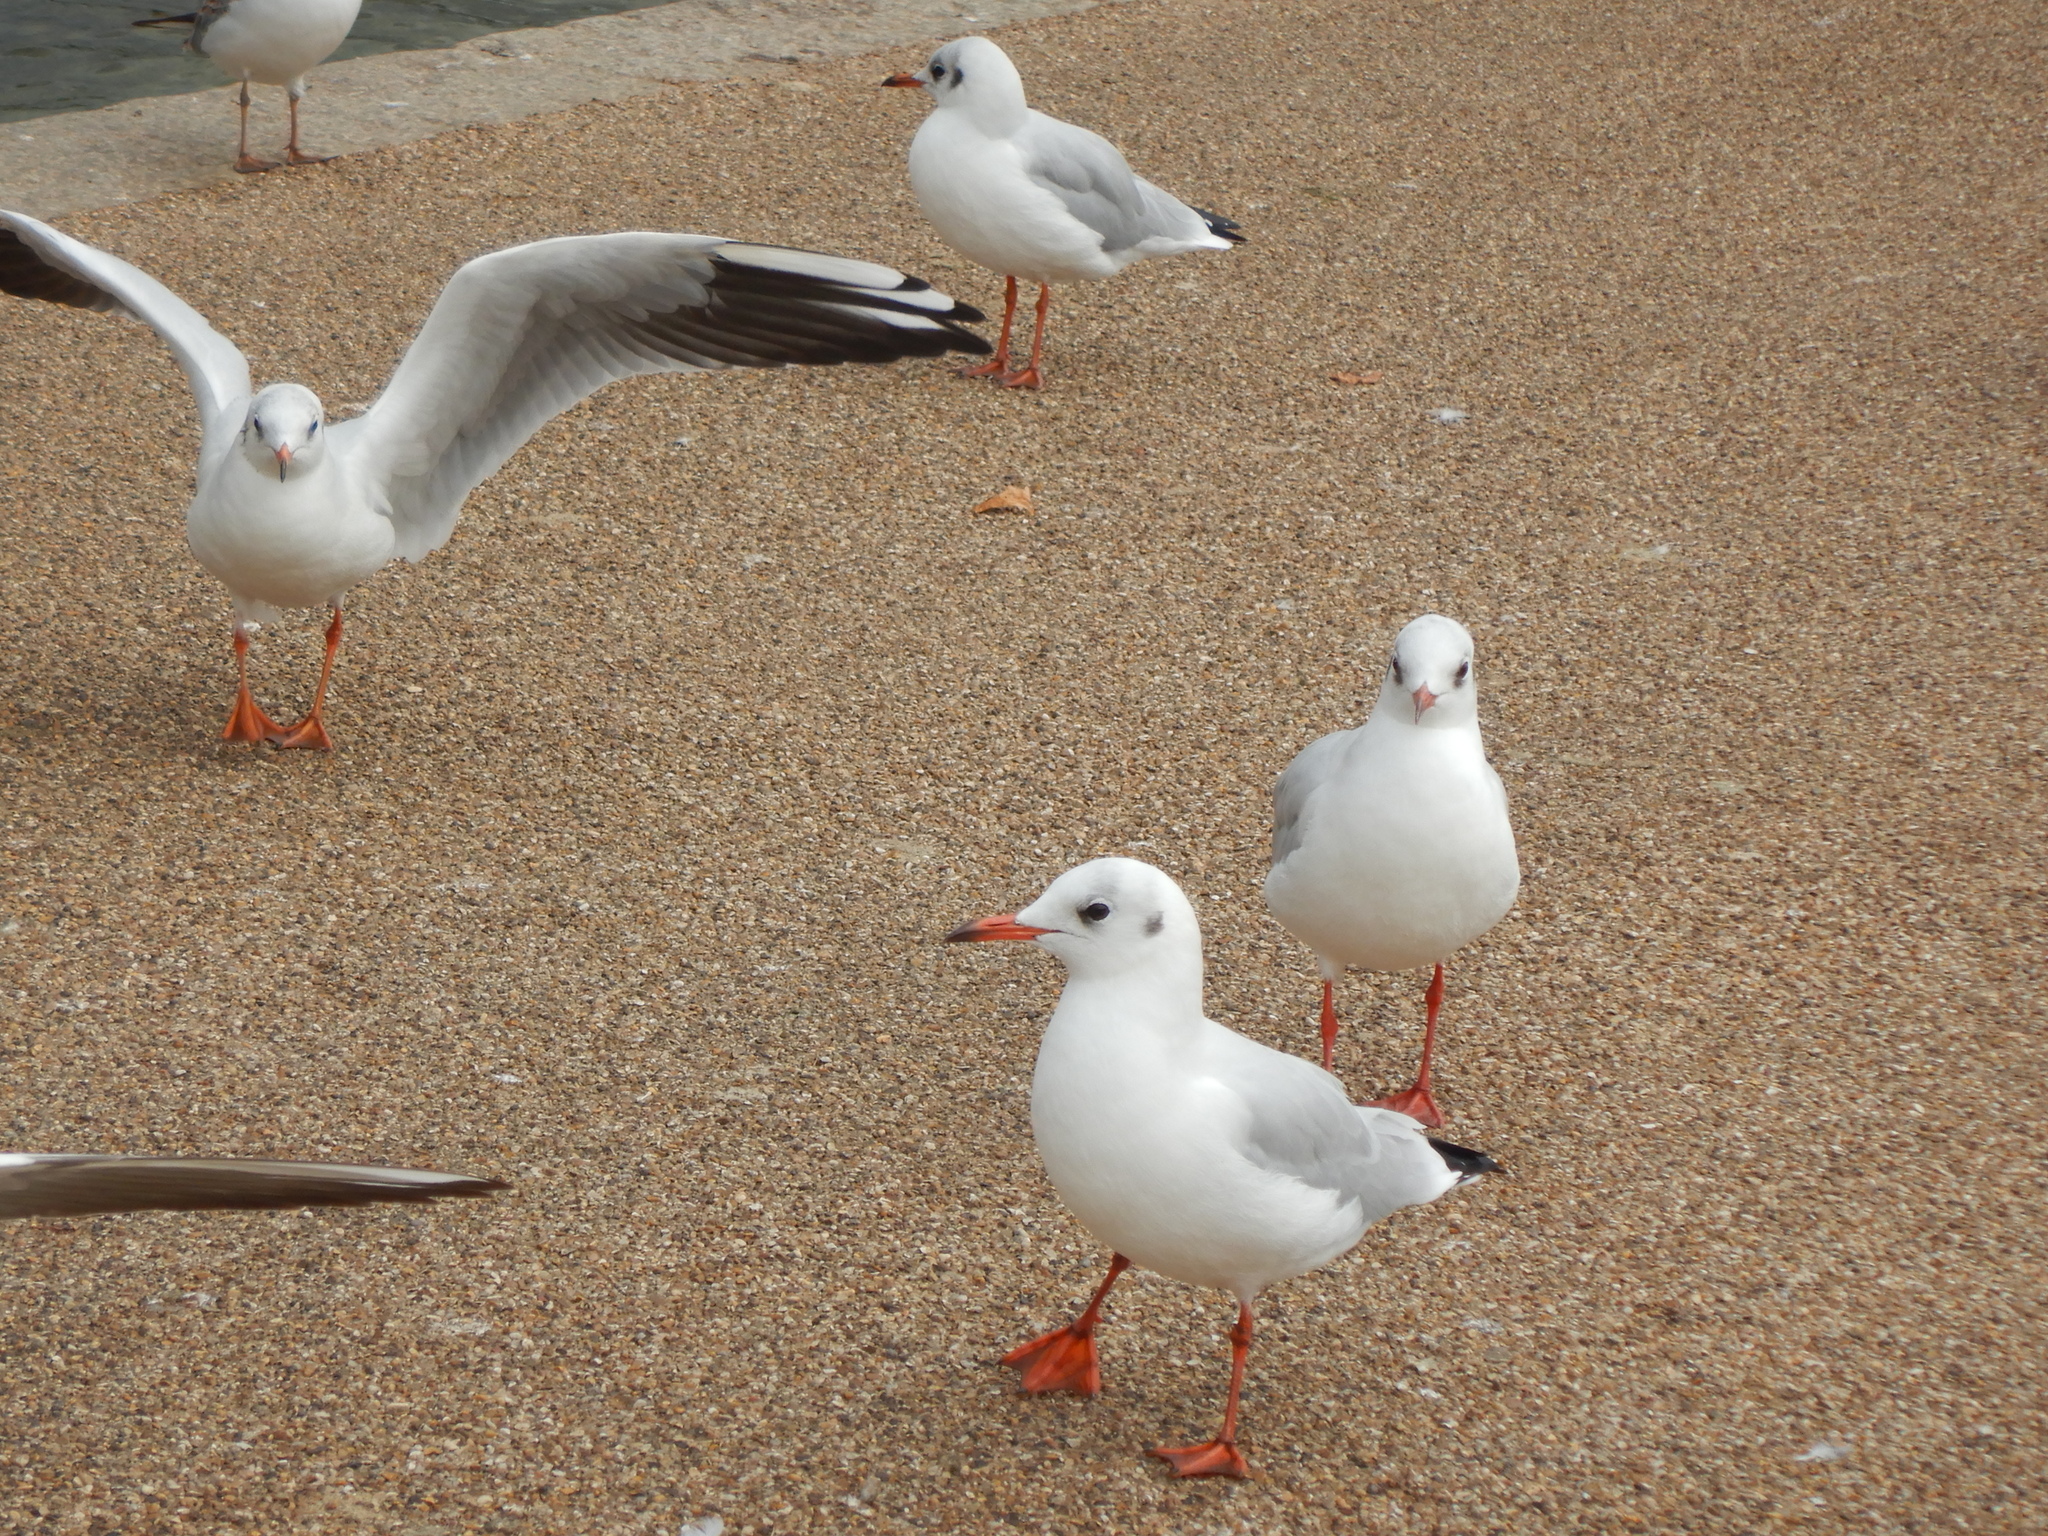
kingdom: Animalia
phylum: Chordata
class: Aves
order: Charadriiformes
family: Laridae
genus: Chroicocephalus
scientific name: Chroicocephalus ridibundus
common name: Black-headed gull
